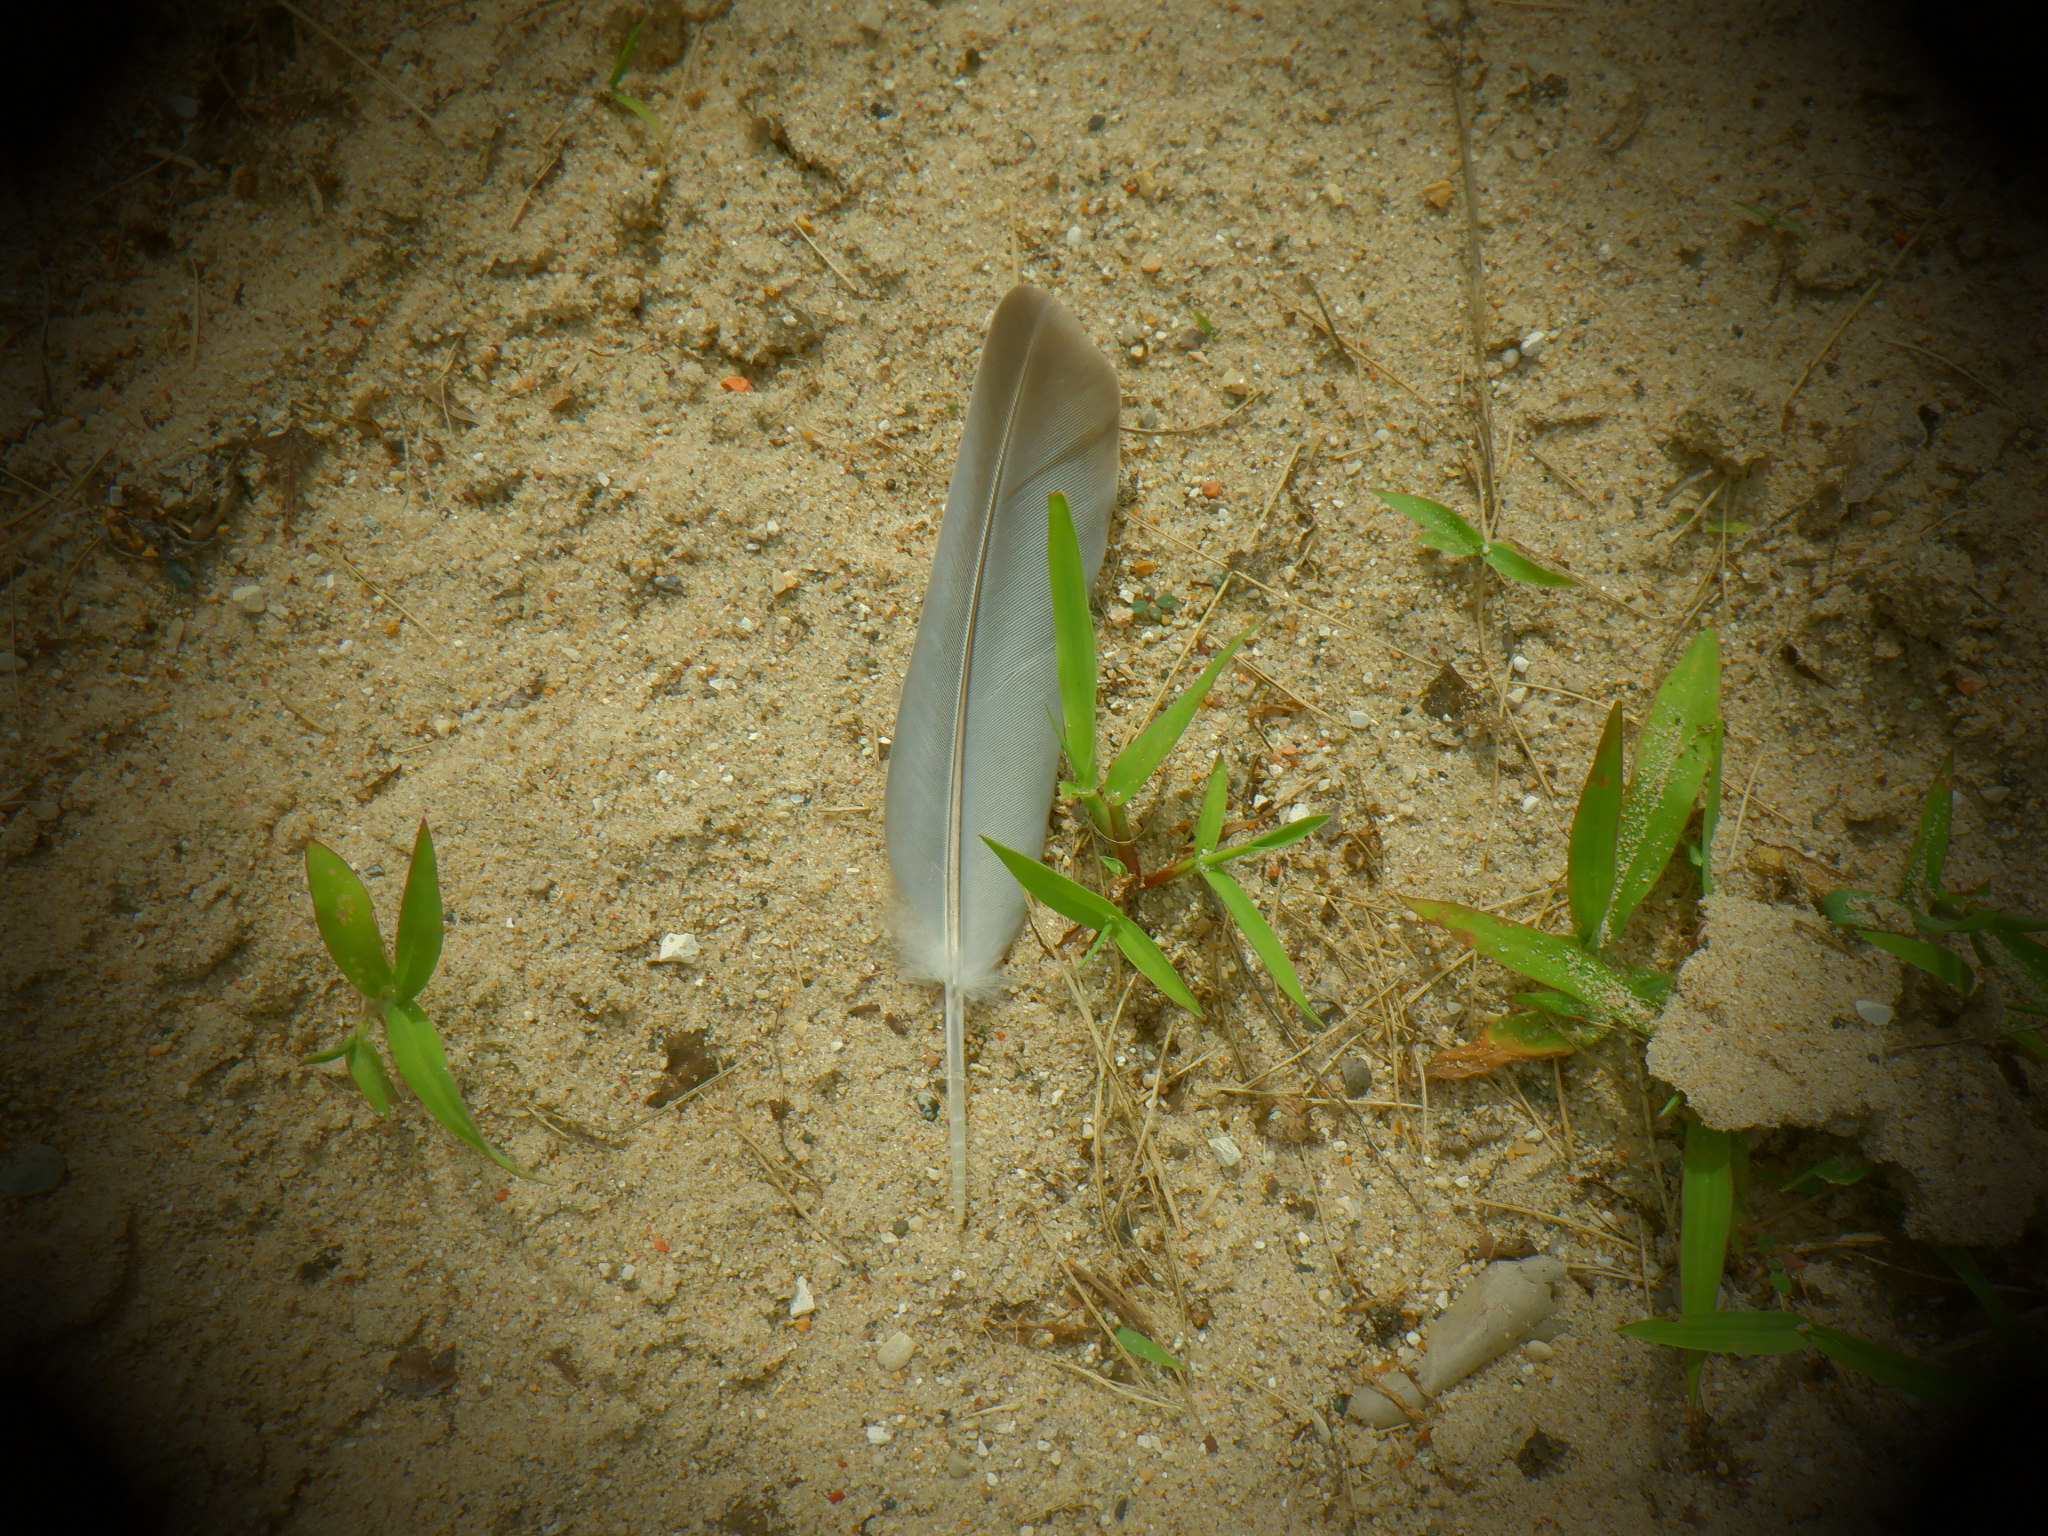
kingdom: Animalia
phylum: Chordata
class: Aves
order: Columbiformes
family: Columbidae
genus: Zenaida
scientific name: Zenaida macroura
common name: Mourning dove
